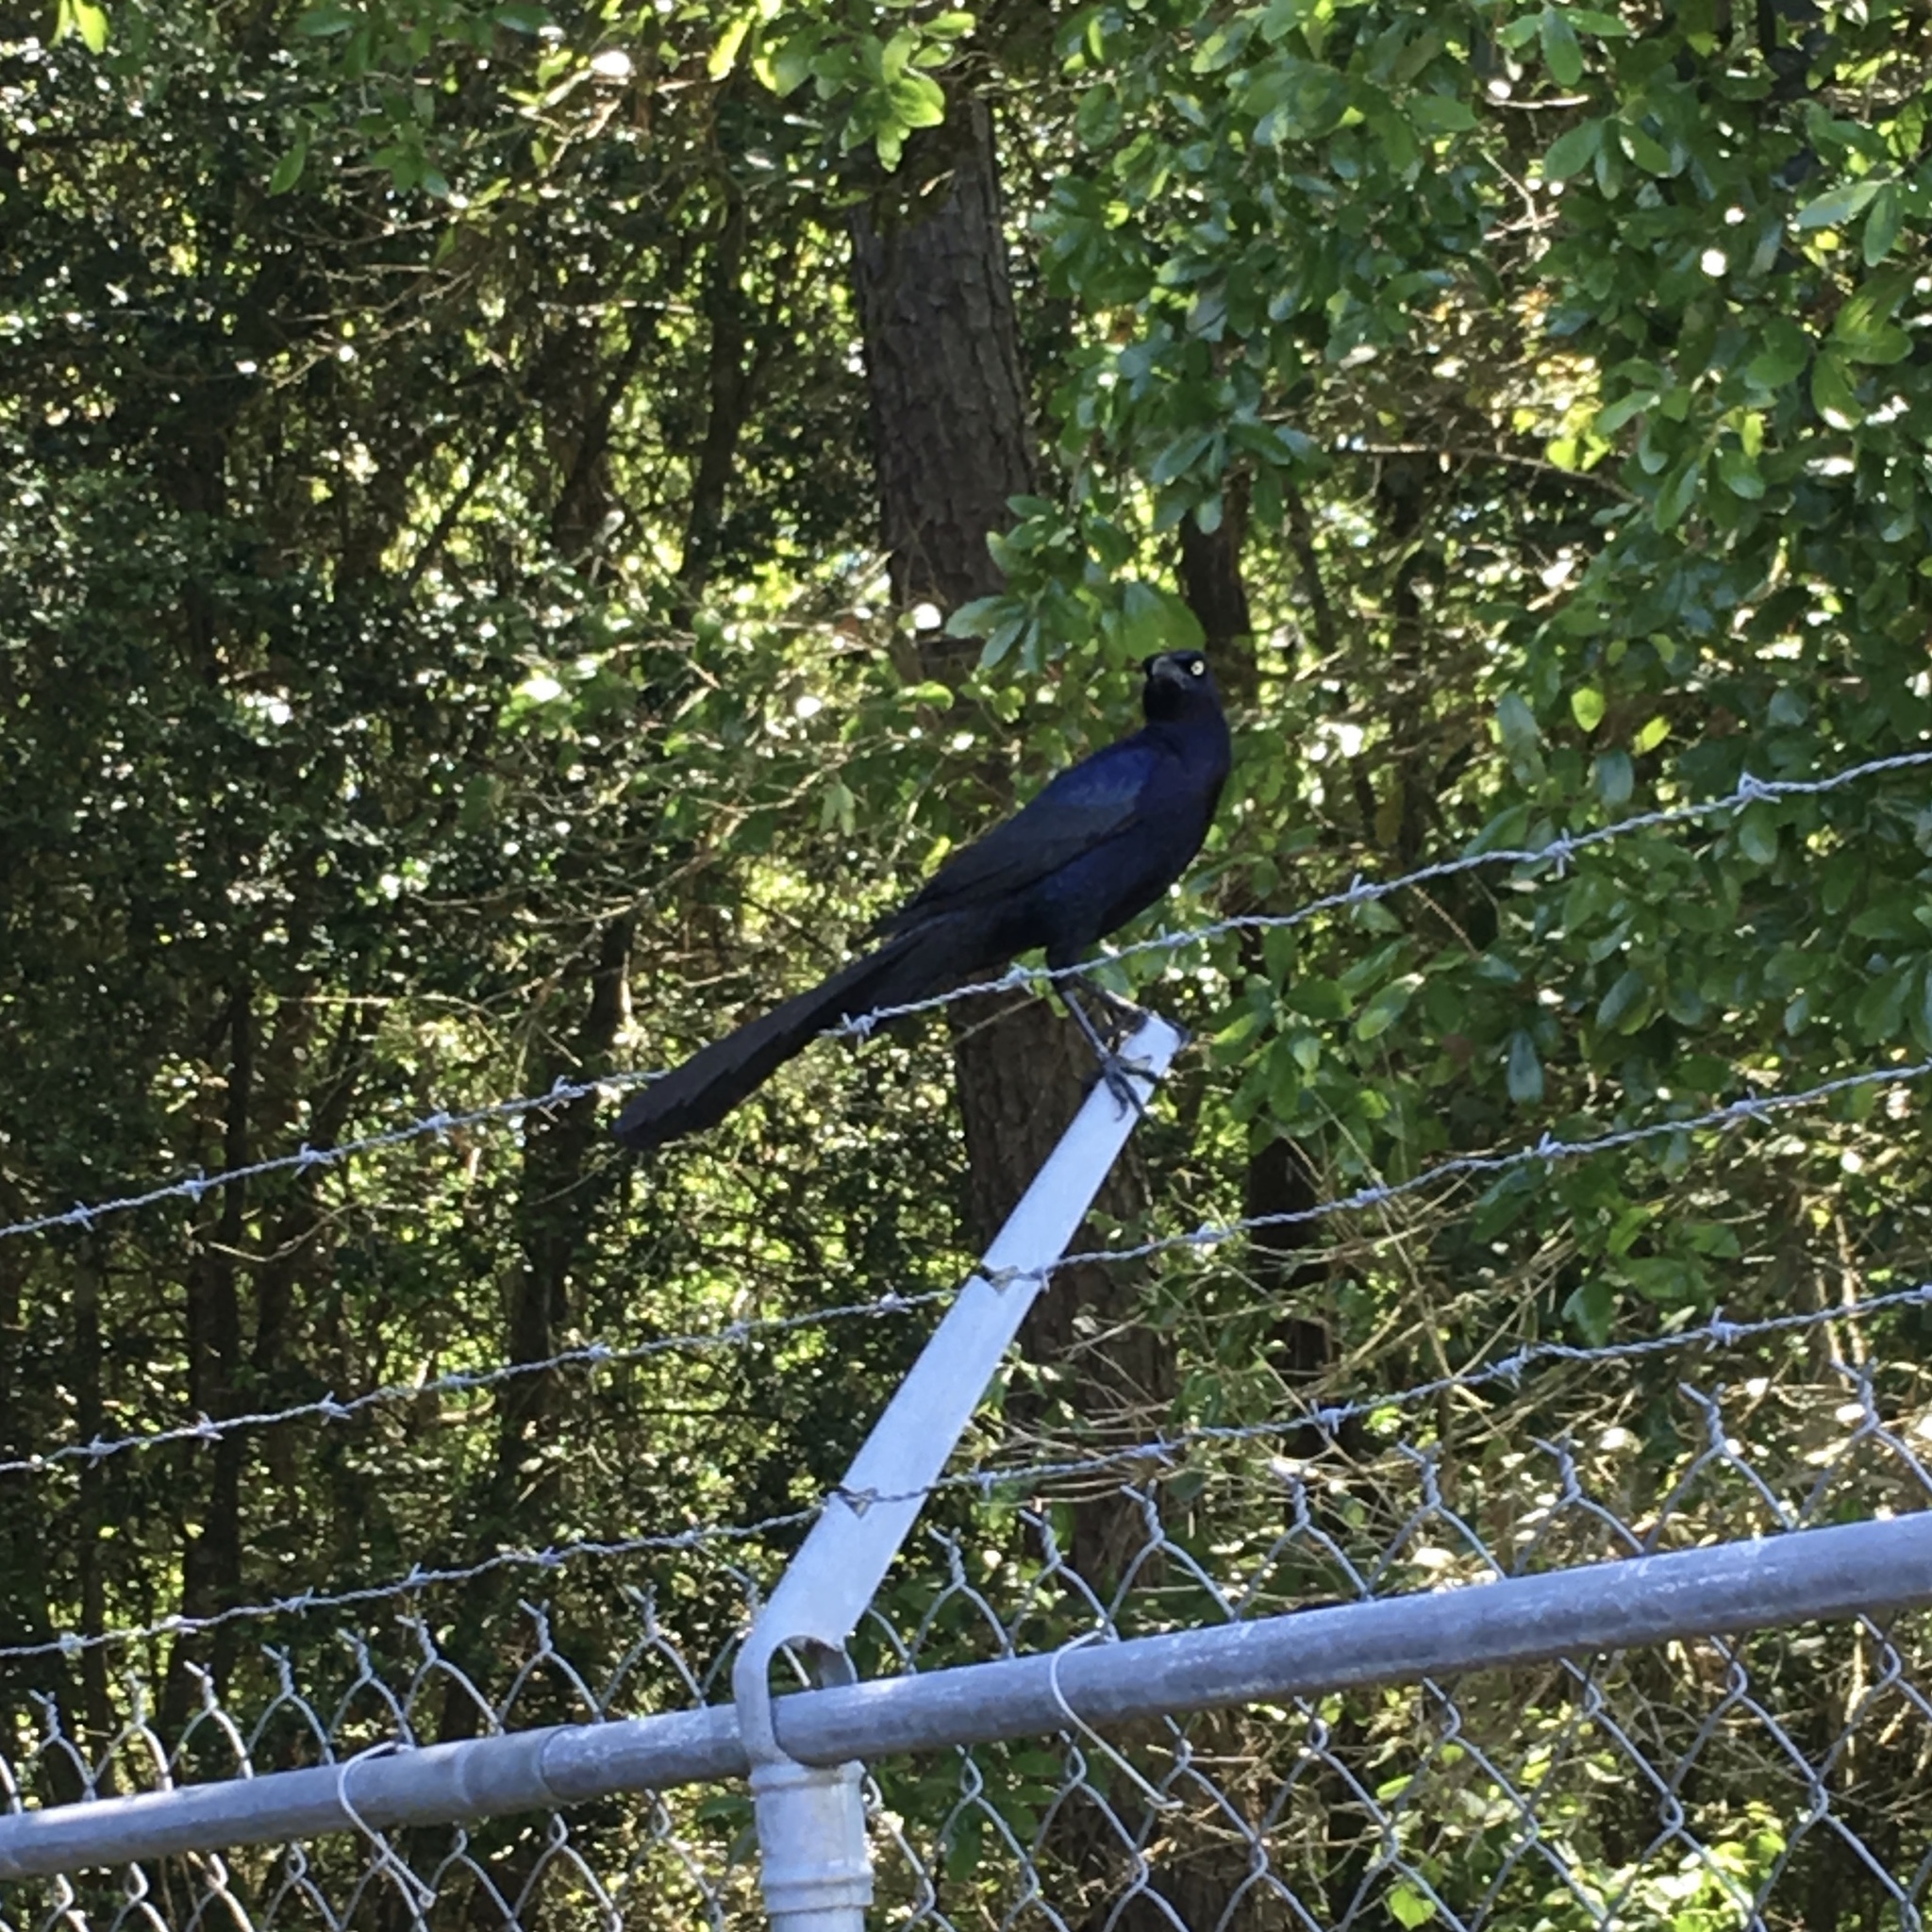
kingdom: Animalia
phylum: Chordata
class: Aves
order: Passeriformes
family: Icteridae
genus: Quiscalus
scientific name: Quiscalus mexicanus
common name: Great-tailed grackle
